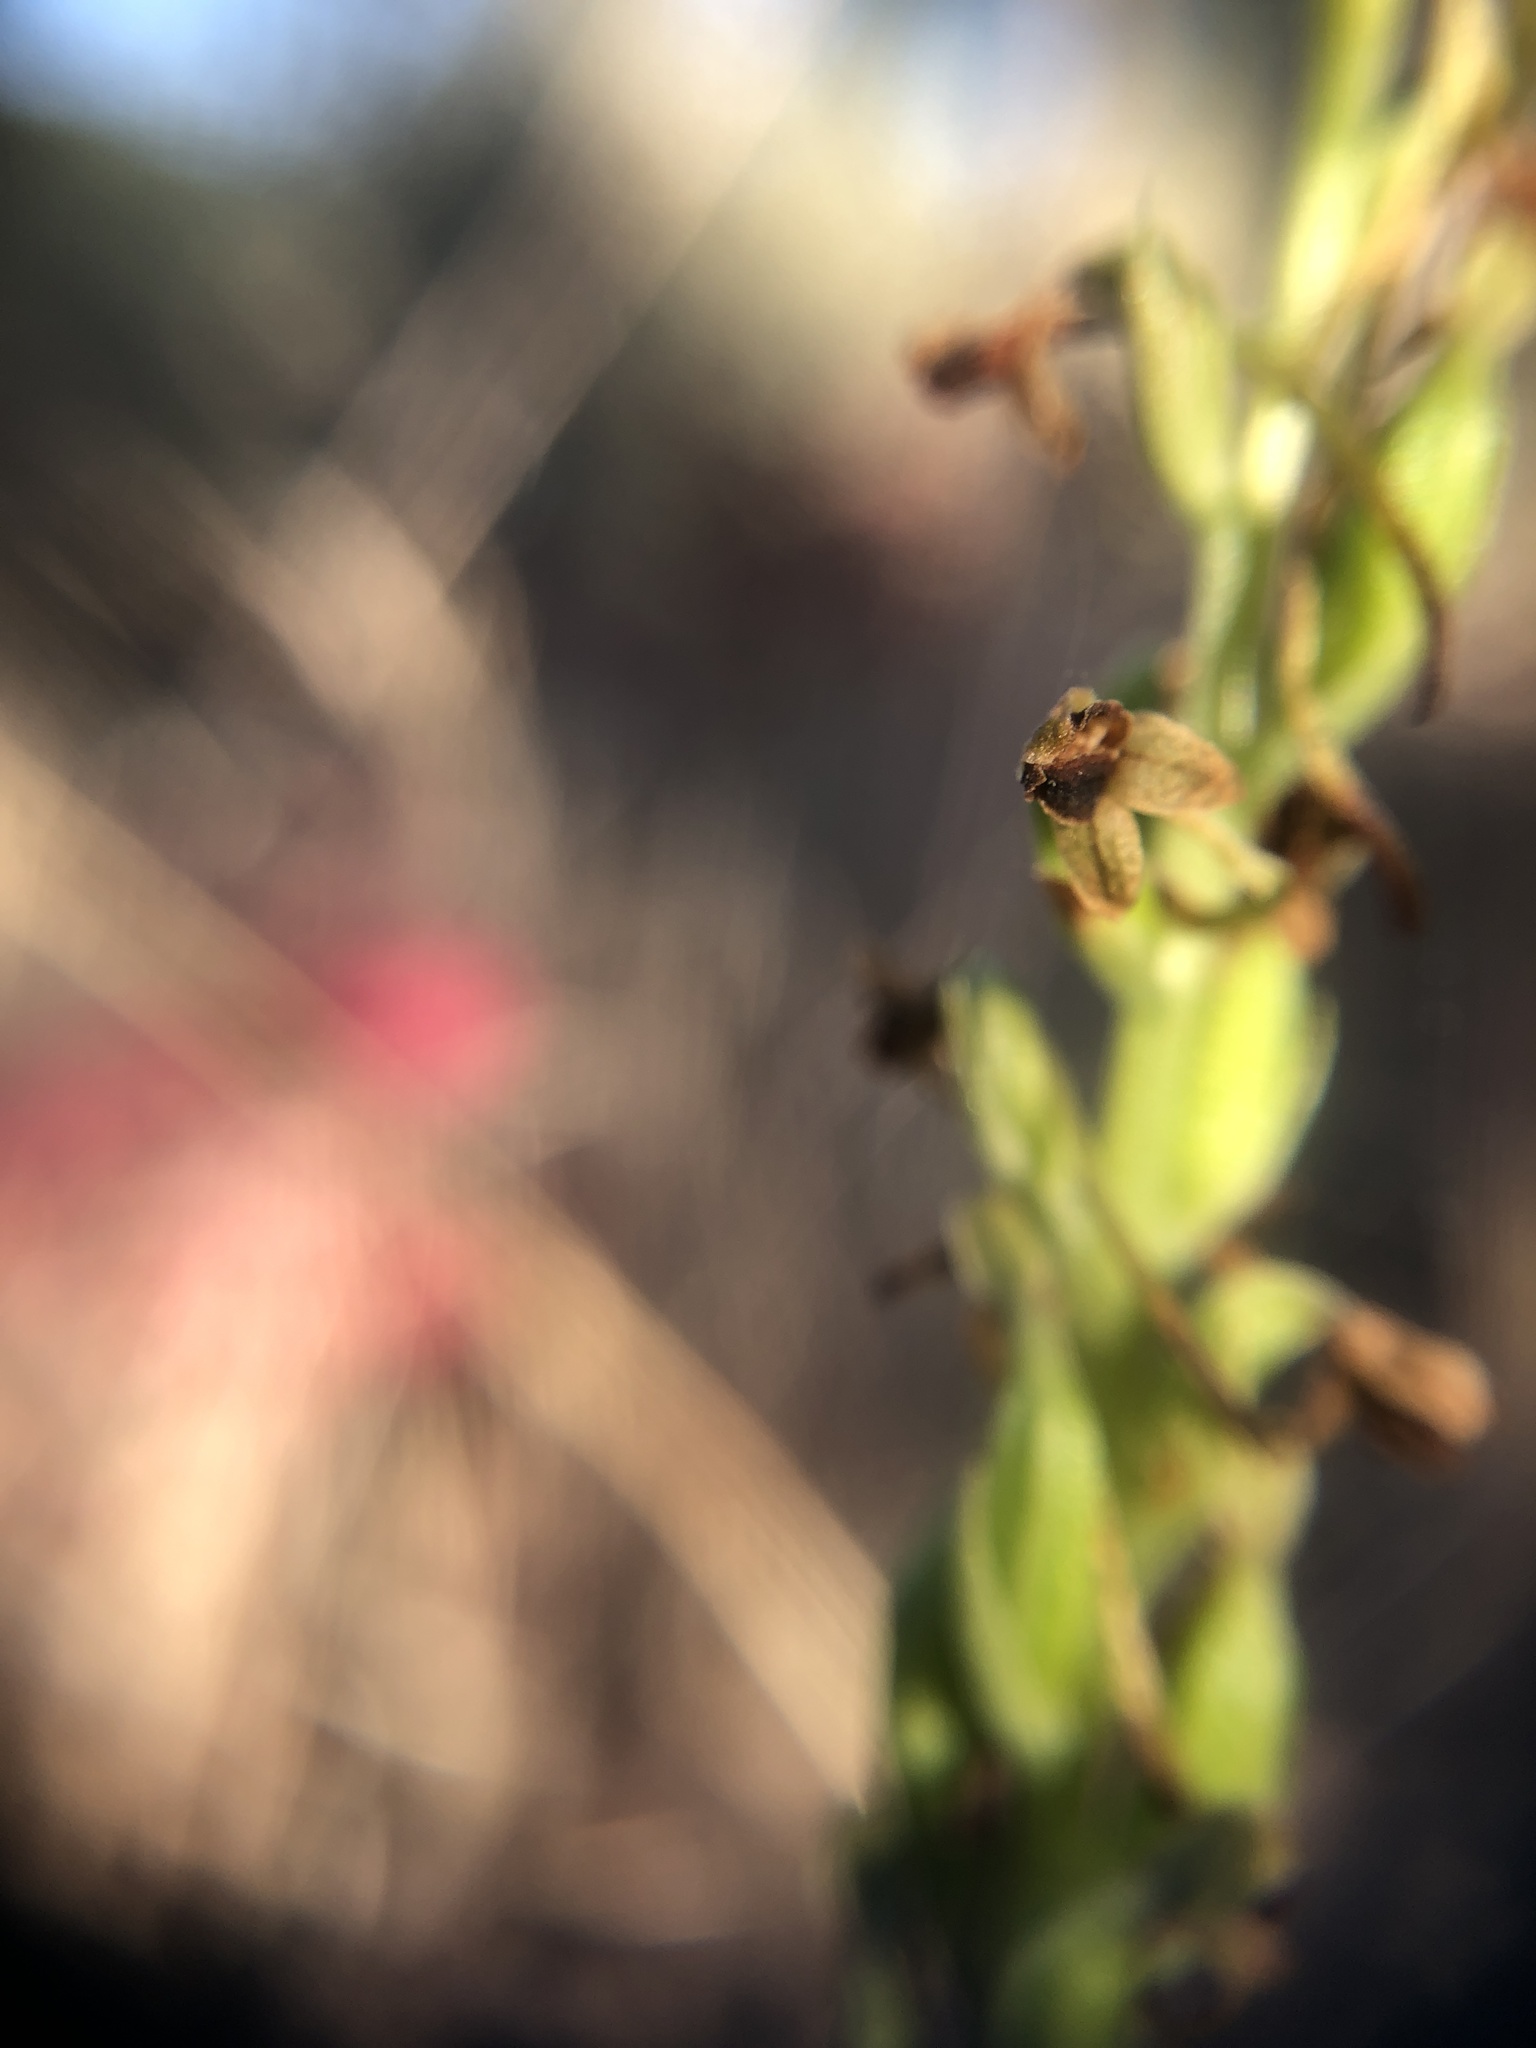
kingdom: Plantae
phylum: Tracheophyta
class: Liliopsida
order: Asparagales
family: Orchidaceae
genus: Platanthera
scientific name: Platanthera michaelii
